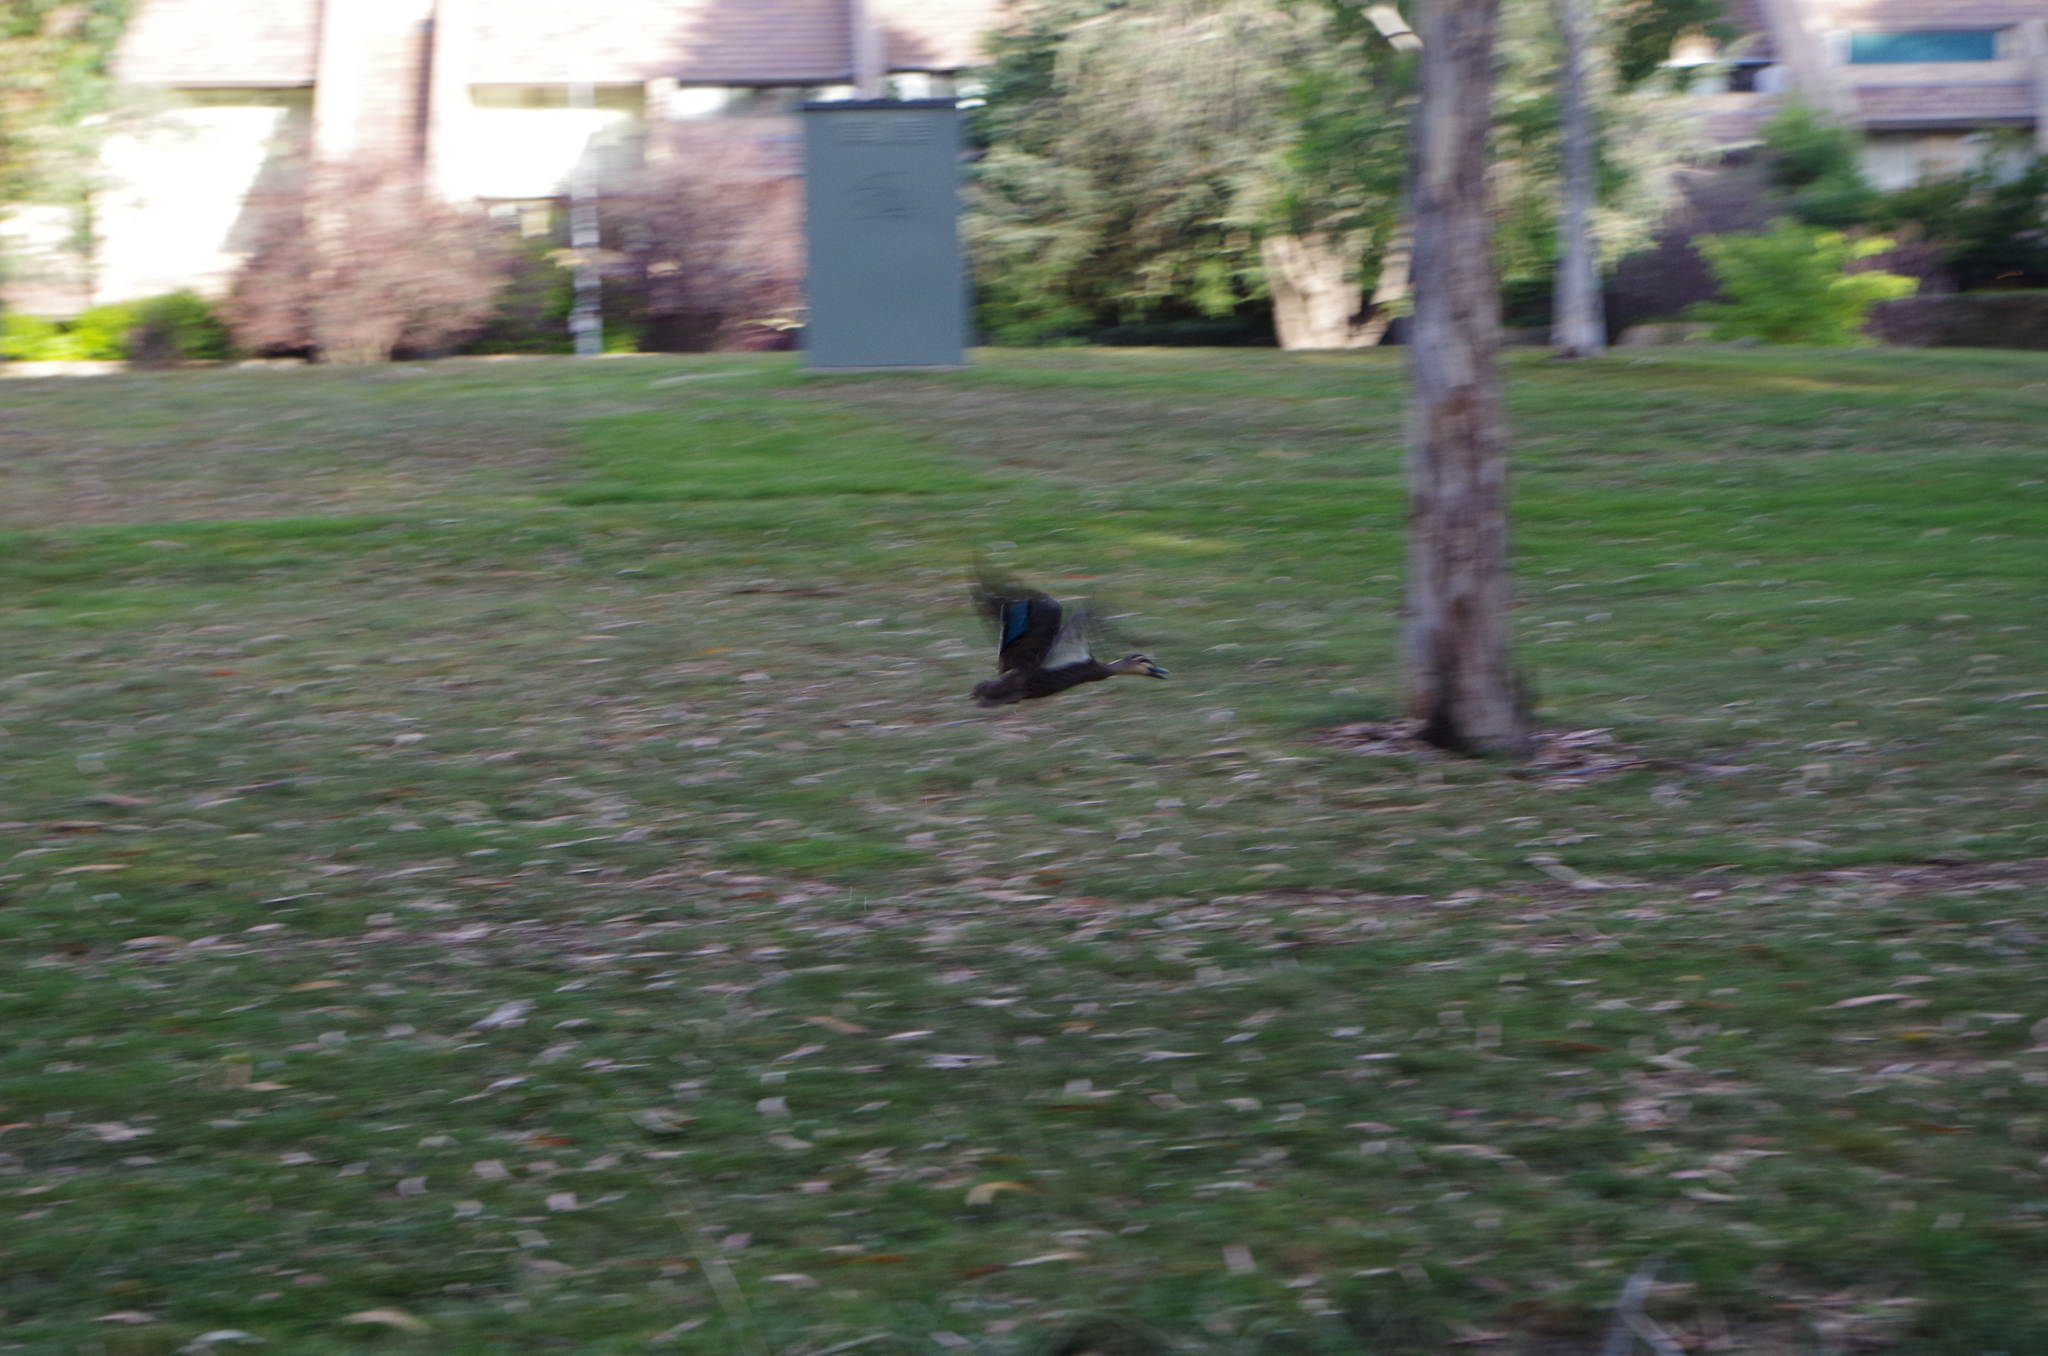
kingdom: Animalia
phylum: Chordata
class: Aves
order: Anseriformes
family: Anatidae
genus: Anas
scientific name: Anas superciliosa
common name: Pacific black duck
